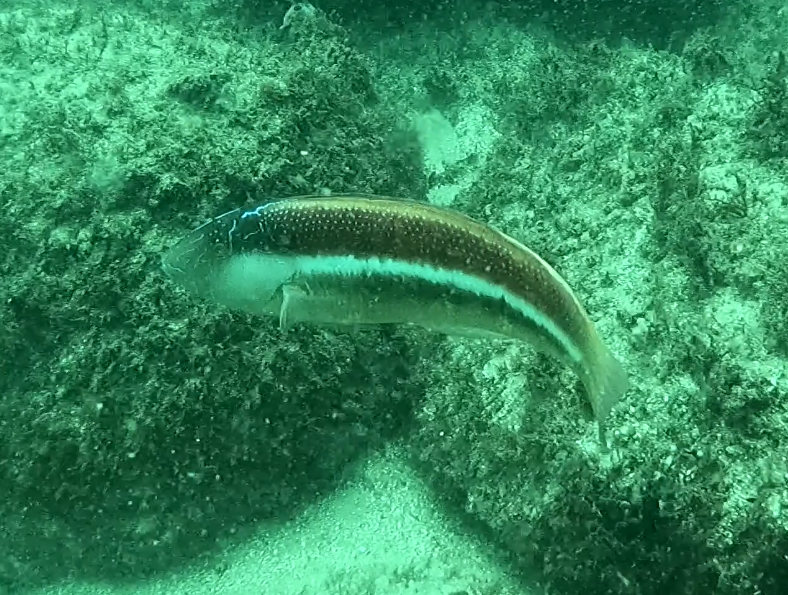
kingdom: Animalia
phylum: Chordata
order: Perciformes
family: Labridae
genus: Ophthalmolepis
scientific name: Ophthalmolepis lineolata
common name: Maori wrasse
